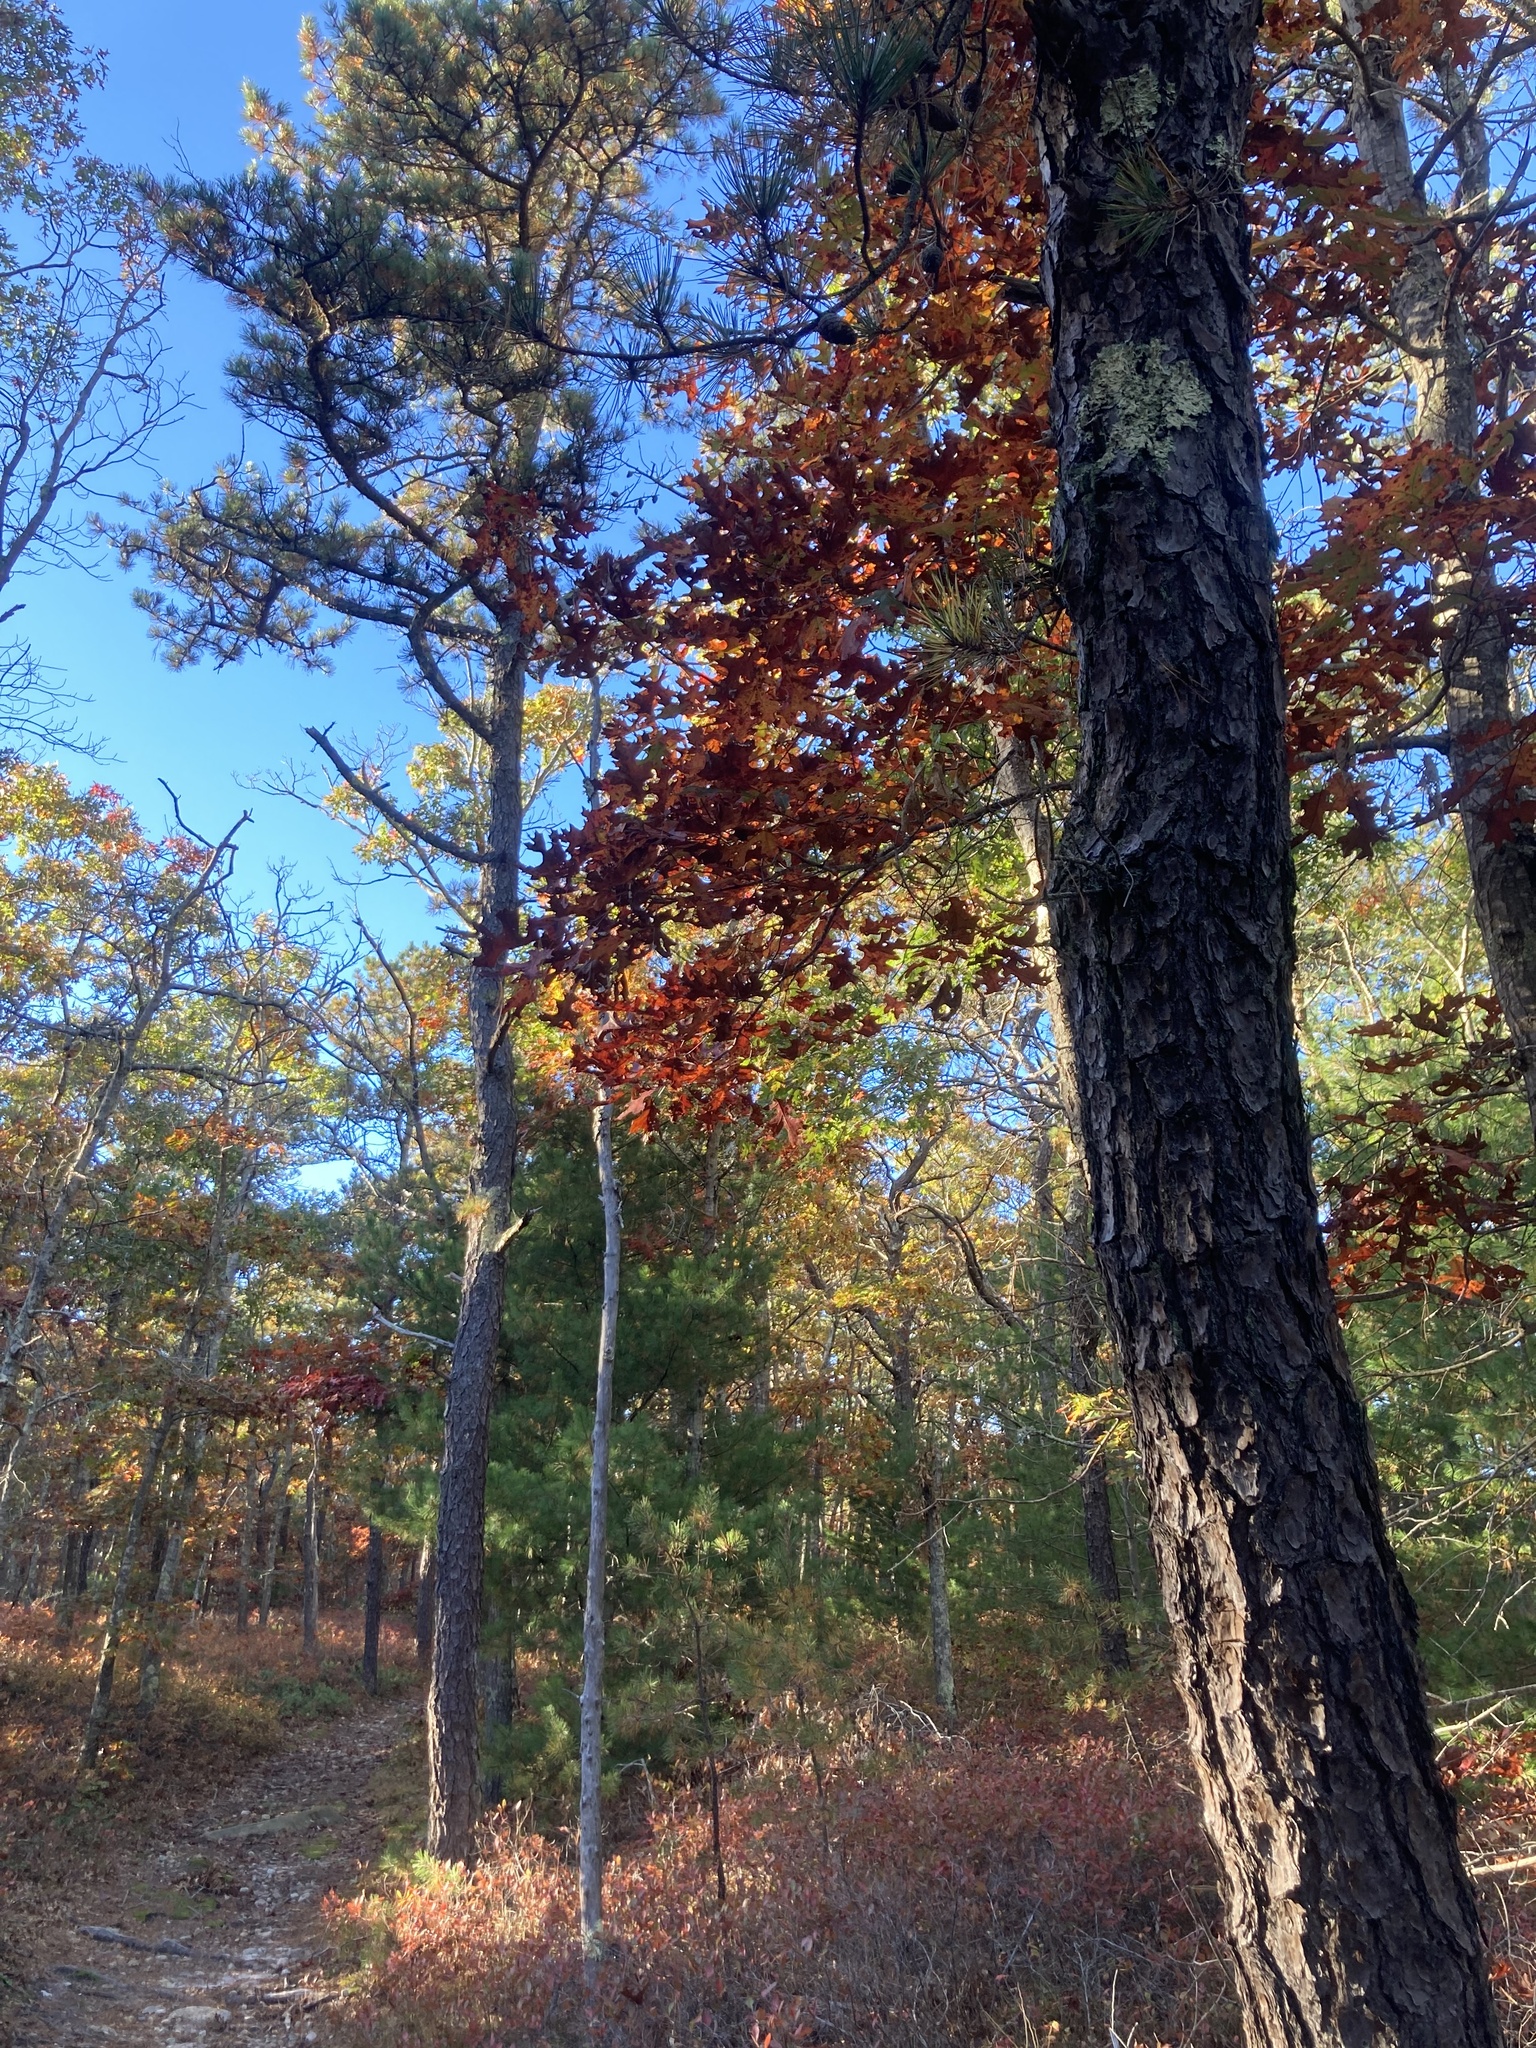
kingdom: Plantae
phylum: Tracheophyta
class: Pinopsida
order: Pinales
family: Pinaceae
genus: Pinus
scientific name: Pinus rigida
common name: Pitch pine
